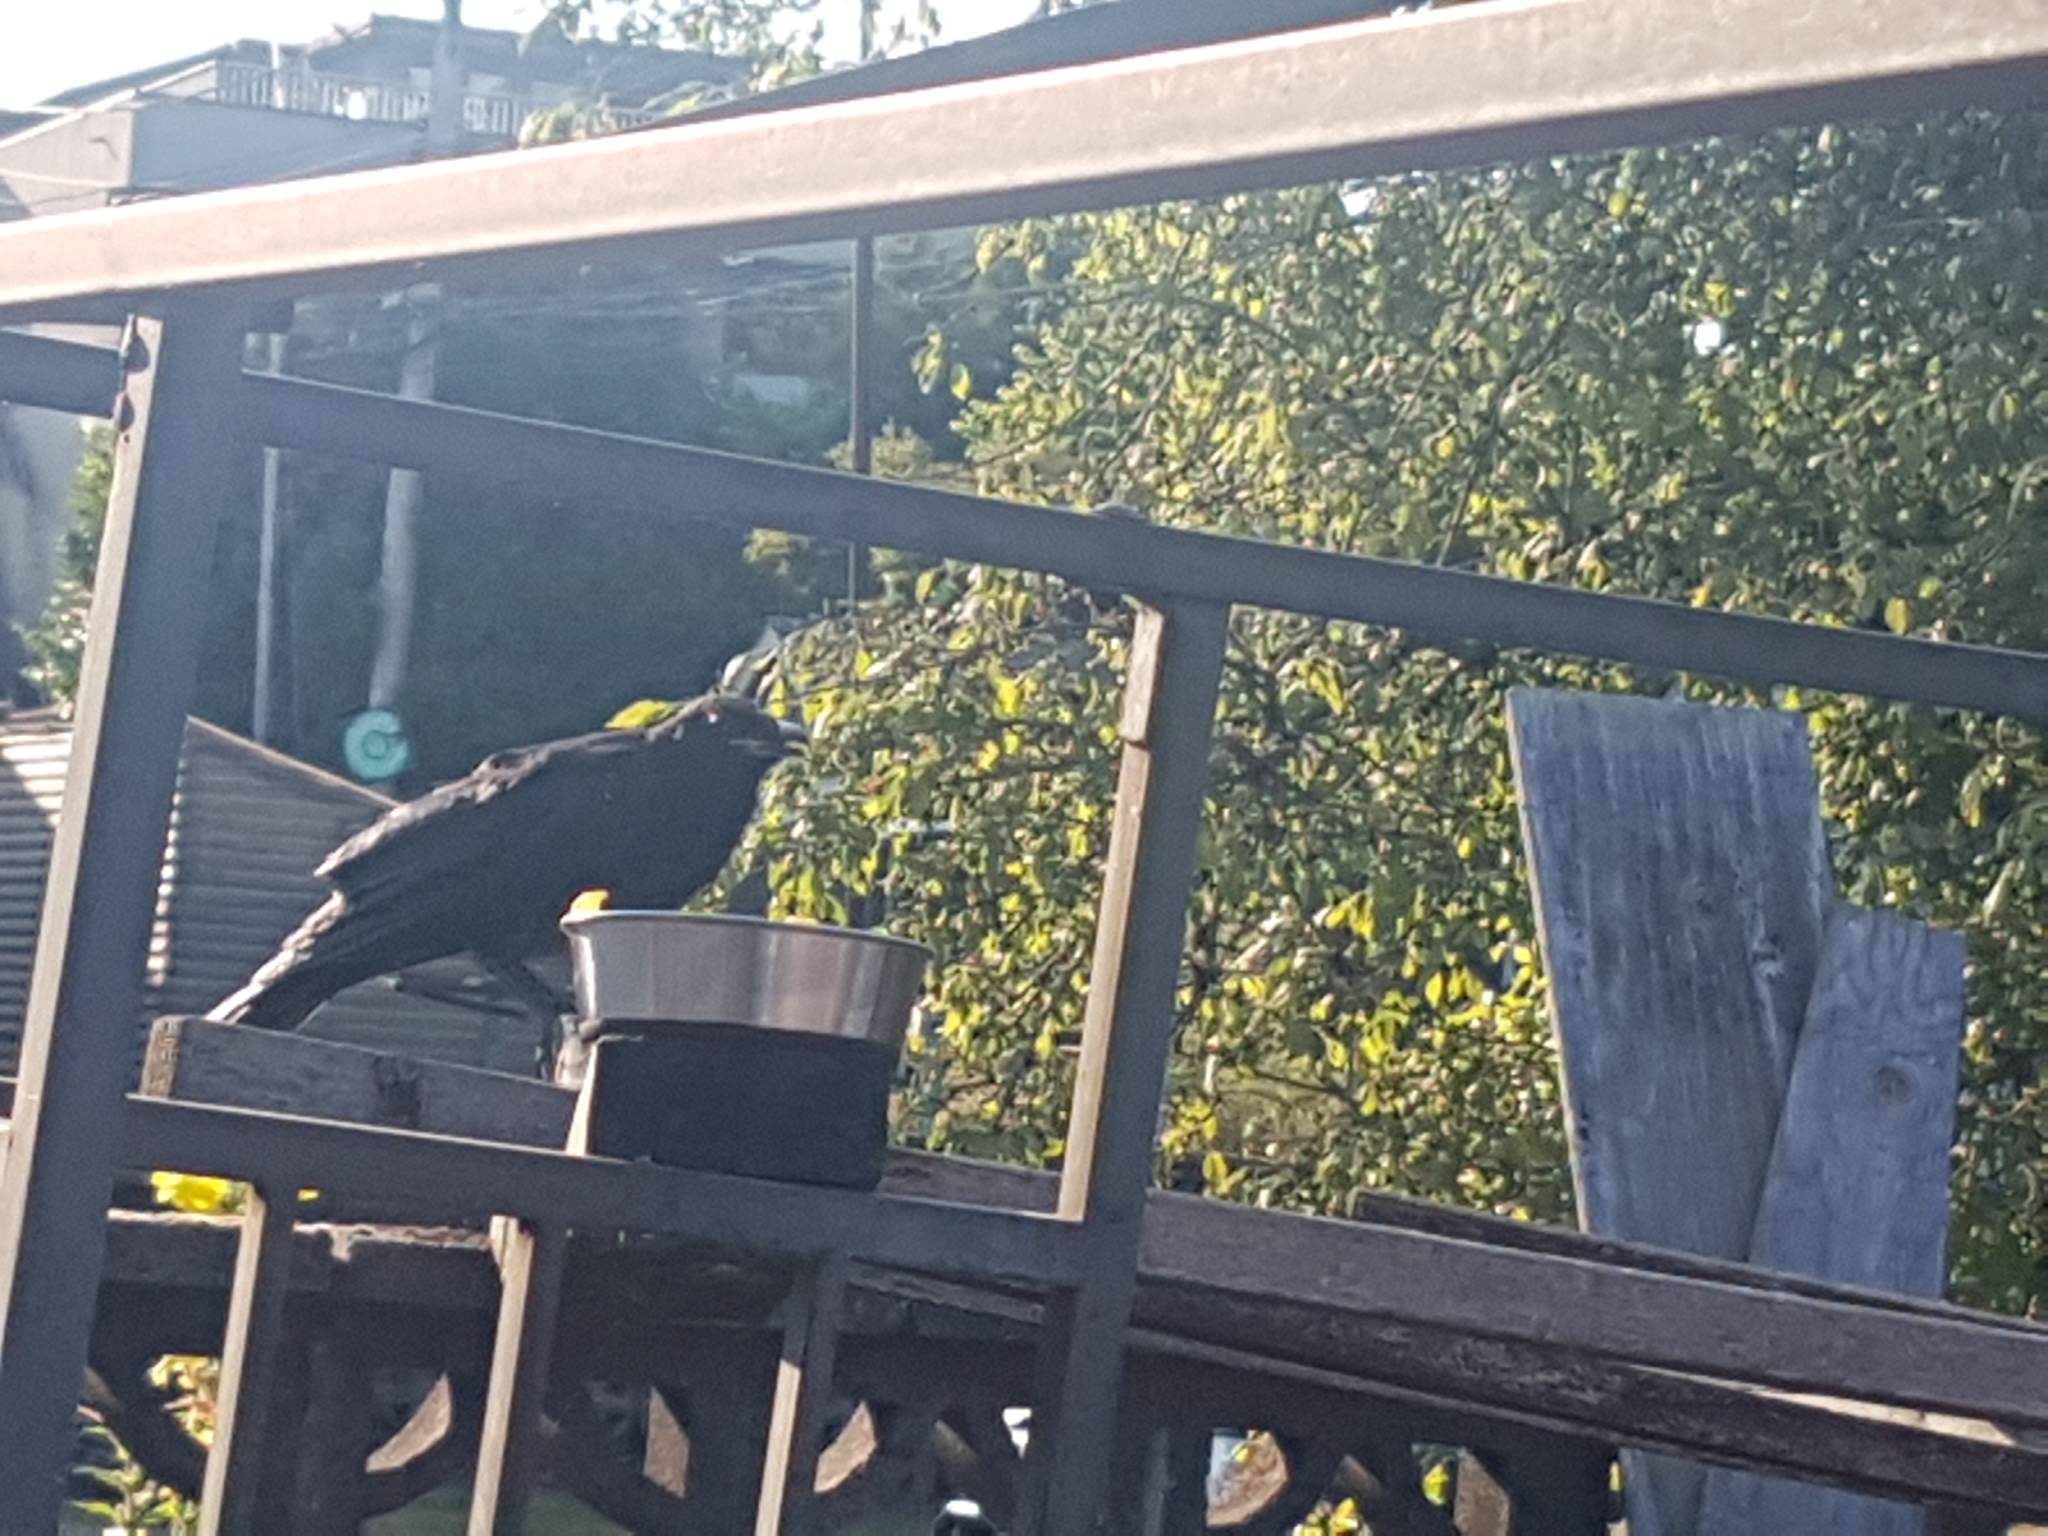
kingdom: Animalia
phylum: Chordata
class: Aves
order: Passeriformes
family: Corvidae
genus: Corvus
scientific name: Corvus brachyrhynchos
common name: American crow
